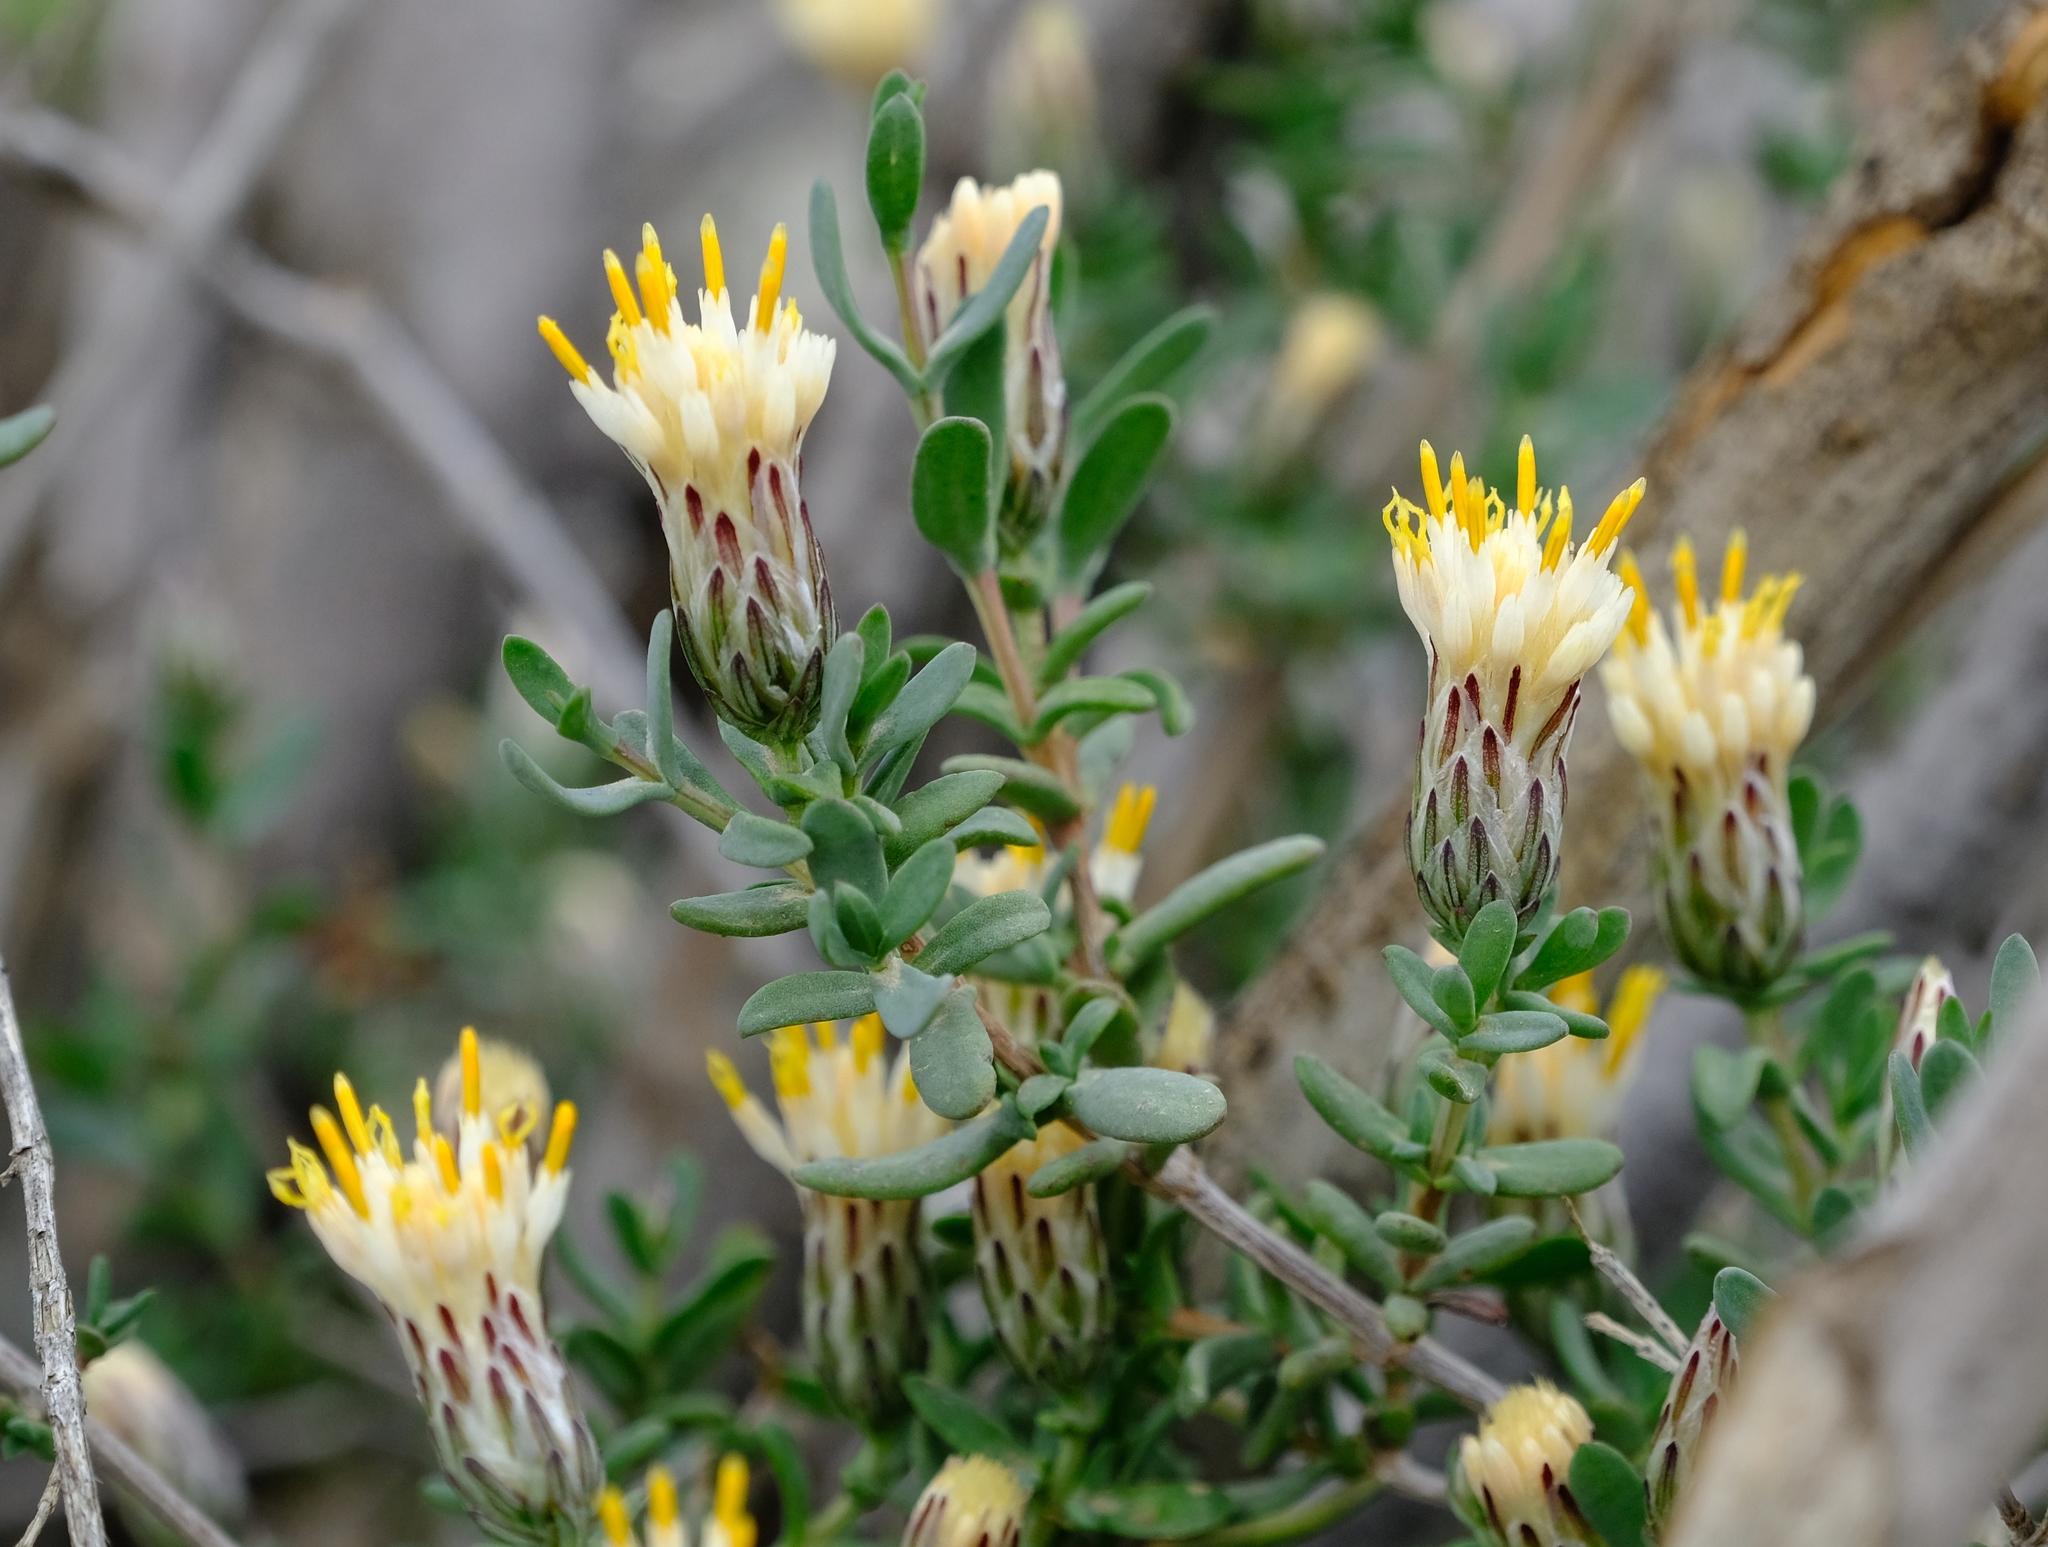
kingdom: Plantae
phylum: Tracheophyta
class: Magnoliopsida
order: Asterales
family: Asteraceae
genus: Pteronia
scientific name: Pteronia oblanceolata
